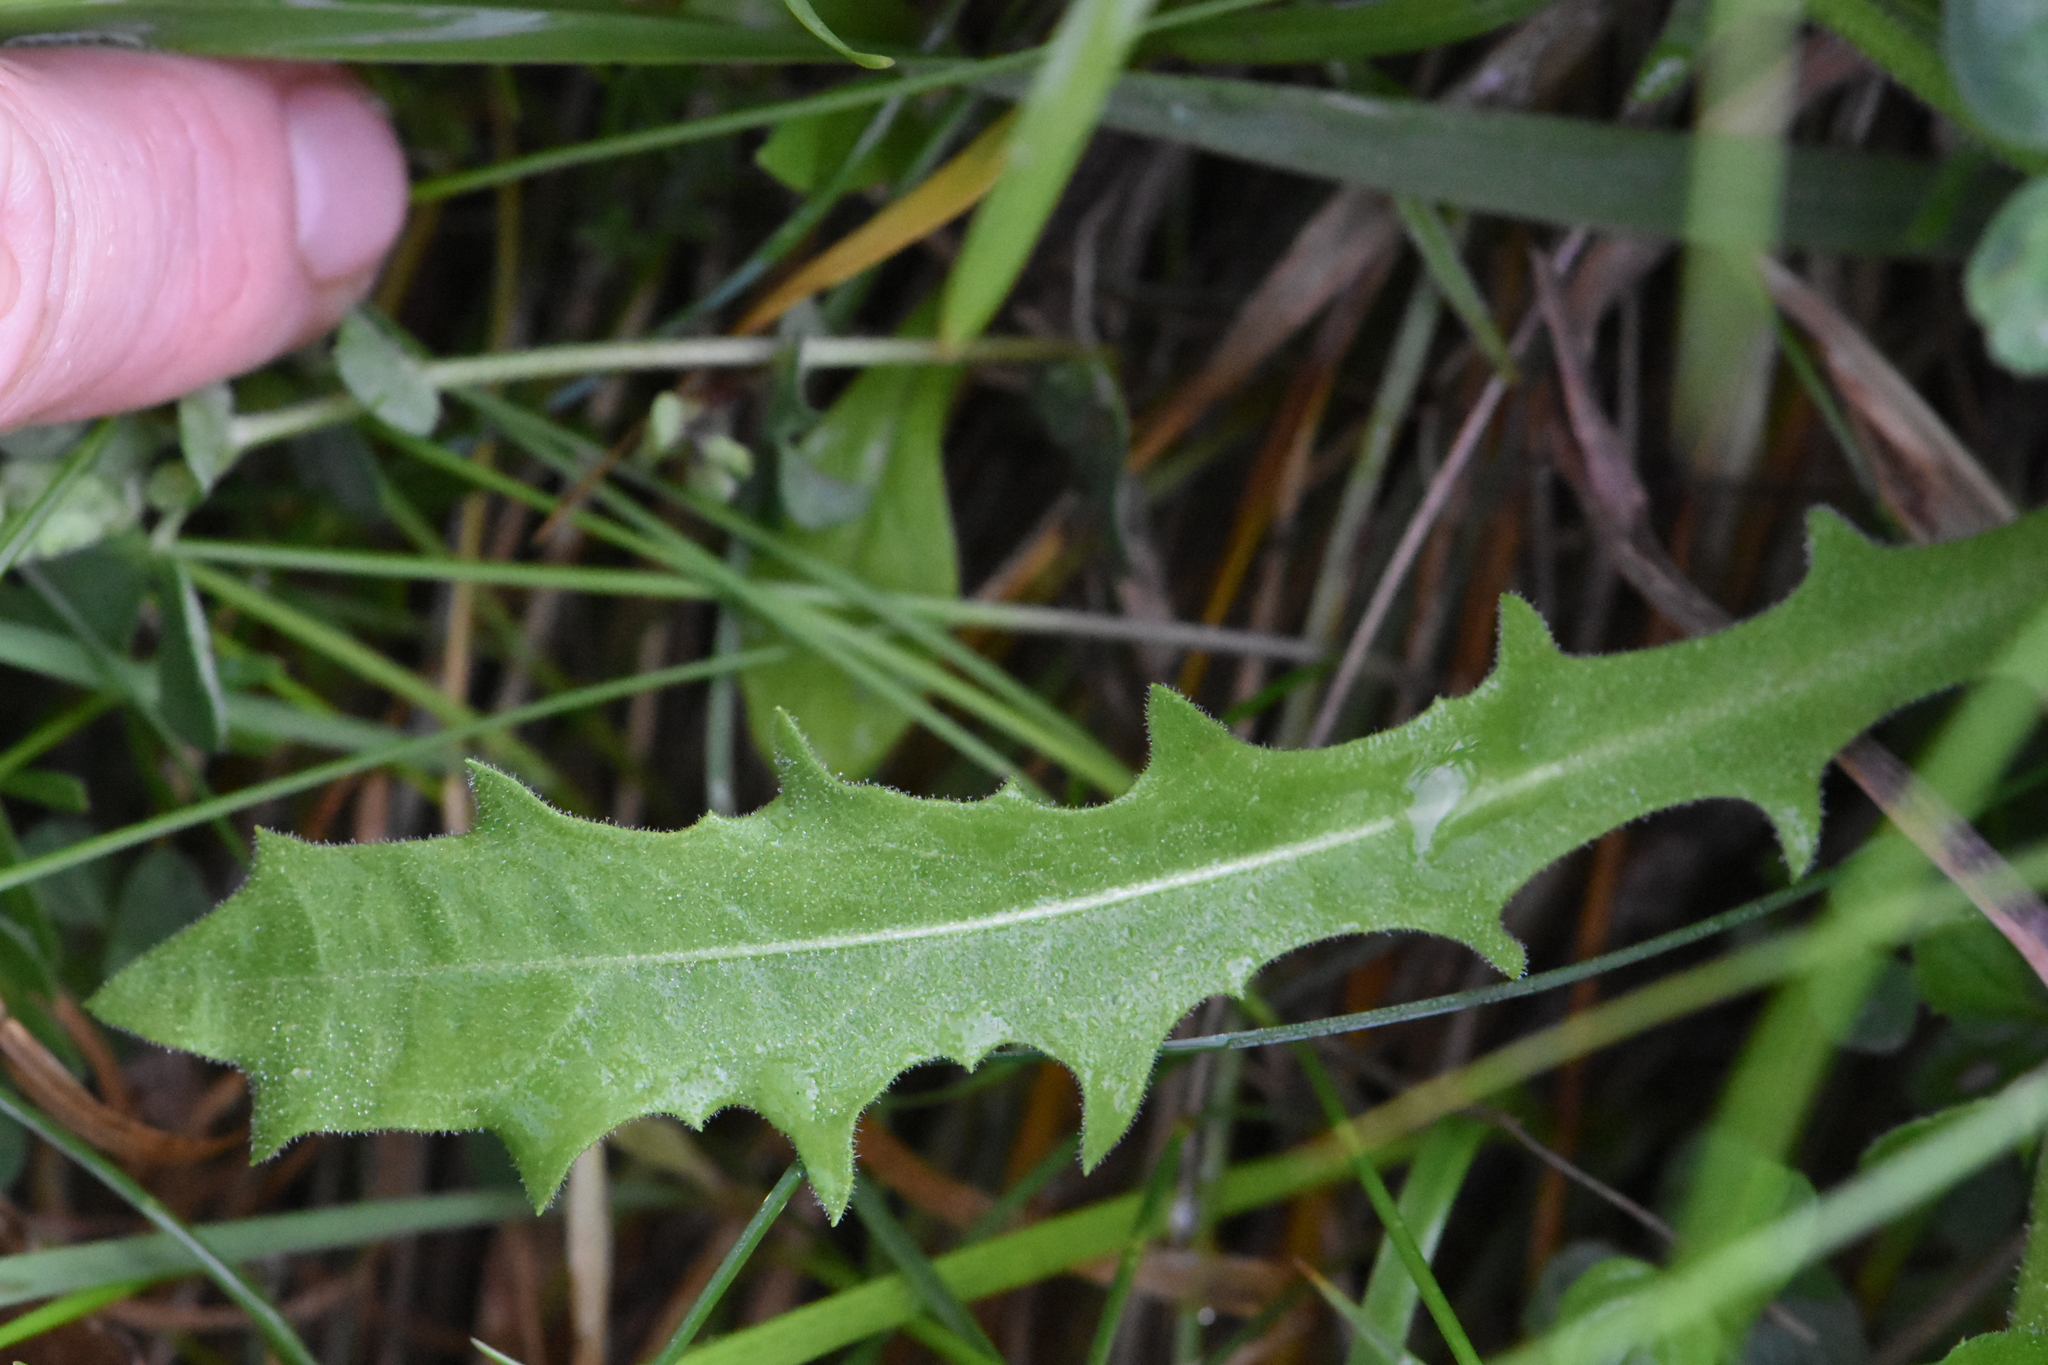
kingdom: Plantae
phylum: Tracheophyta
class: Magnoliopsida
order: Asterales
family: Asteraceae
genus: Leontodon
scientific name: Leontodon hispidus
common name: Rough hawkbit
